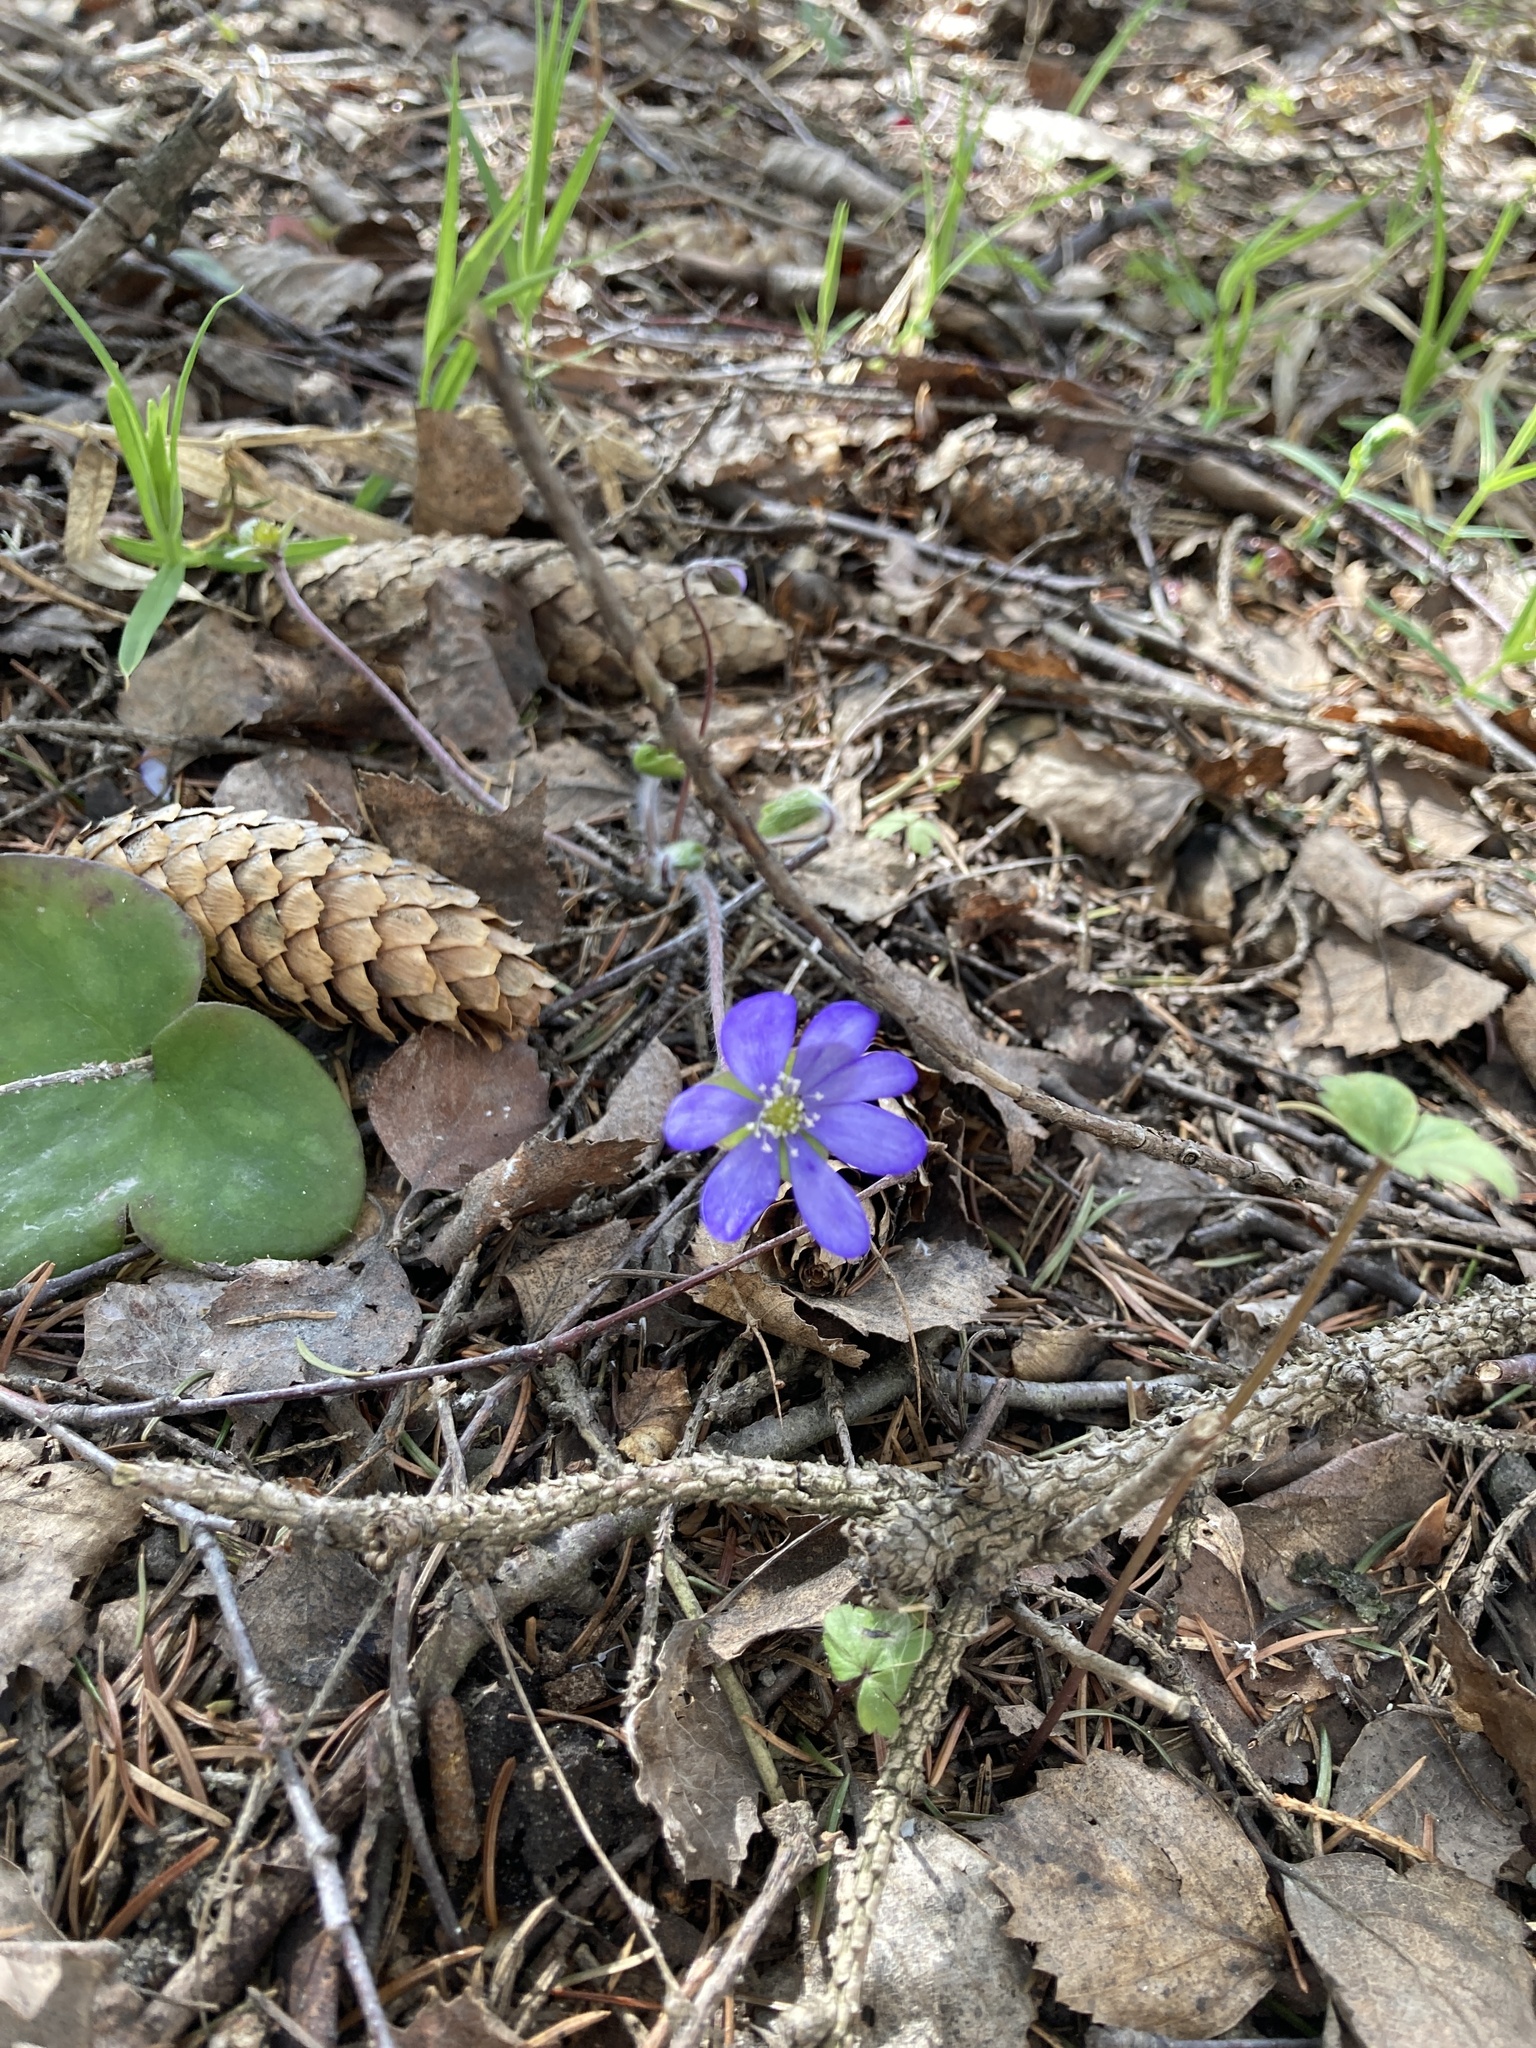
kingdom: Plantae
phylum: Tracheophyta
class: Magnoliopsida
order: Ranunculales
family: Ranunculaceae
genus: Hepatica
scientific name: Hepatica nobilis
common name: Liverleaf
